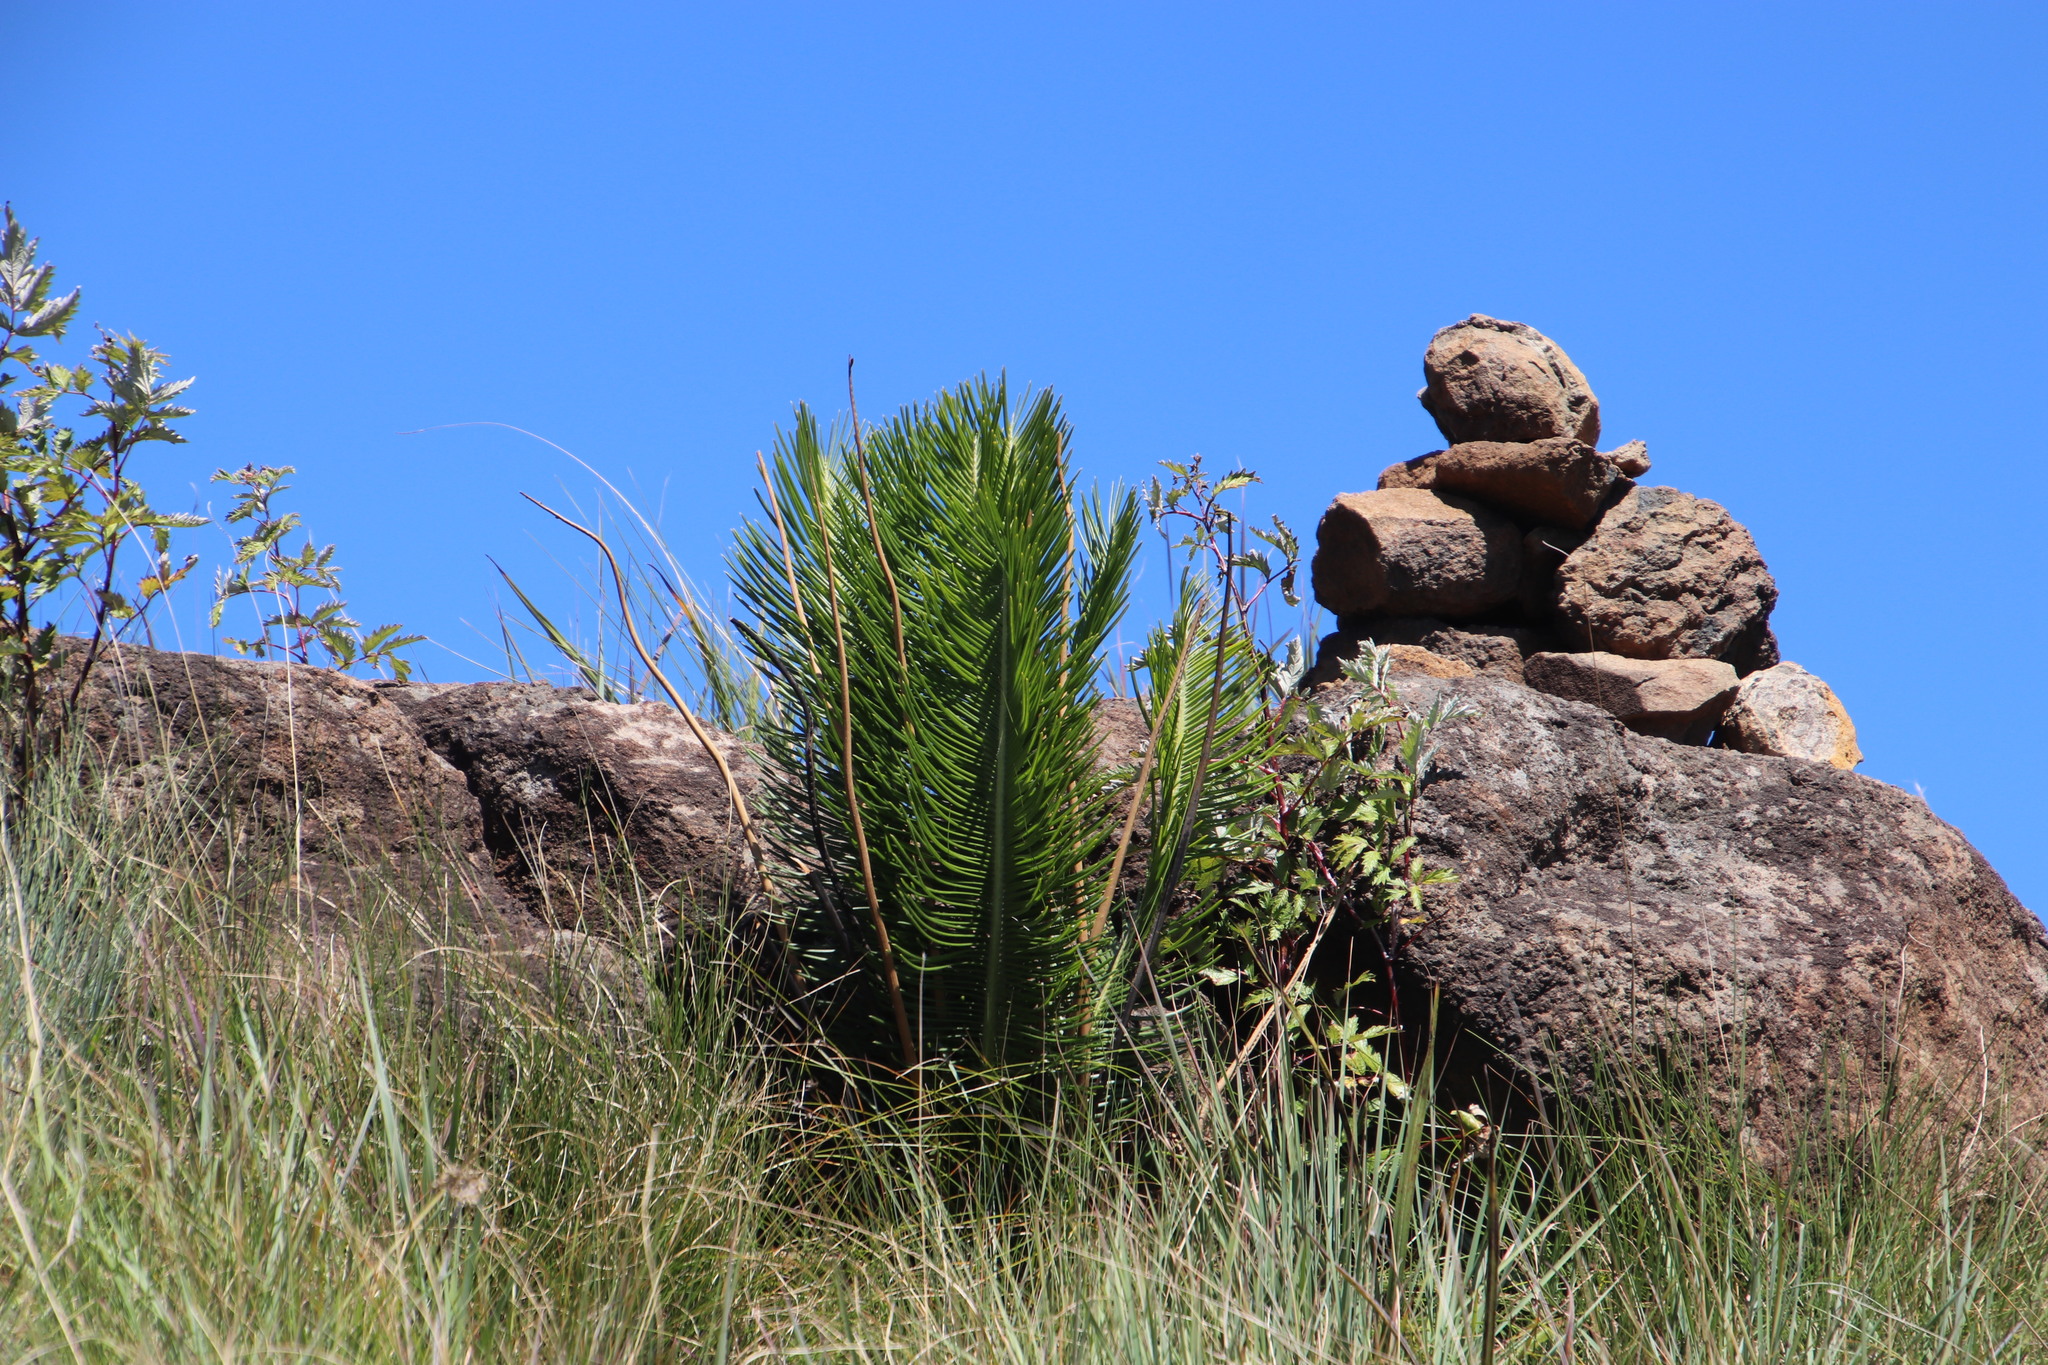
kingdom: Plantae
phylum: Tracheophyta
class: Cycadopsida
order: Cycadales
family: Zamiaceae
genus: Encephalartos
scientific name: Encephalartos ghellinckii
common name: Drakensberg cycad
